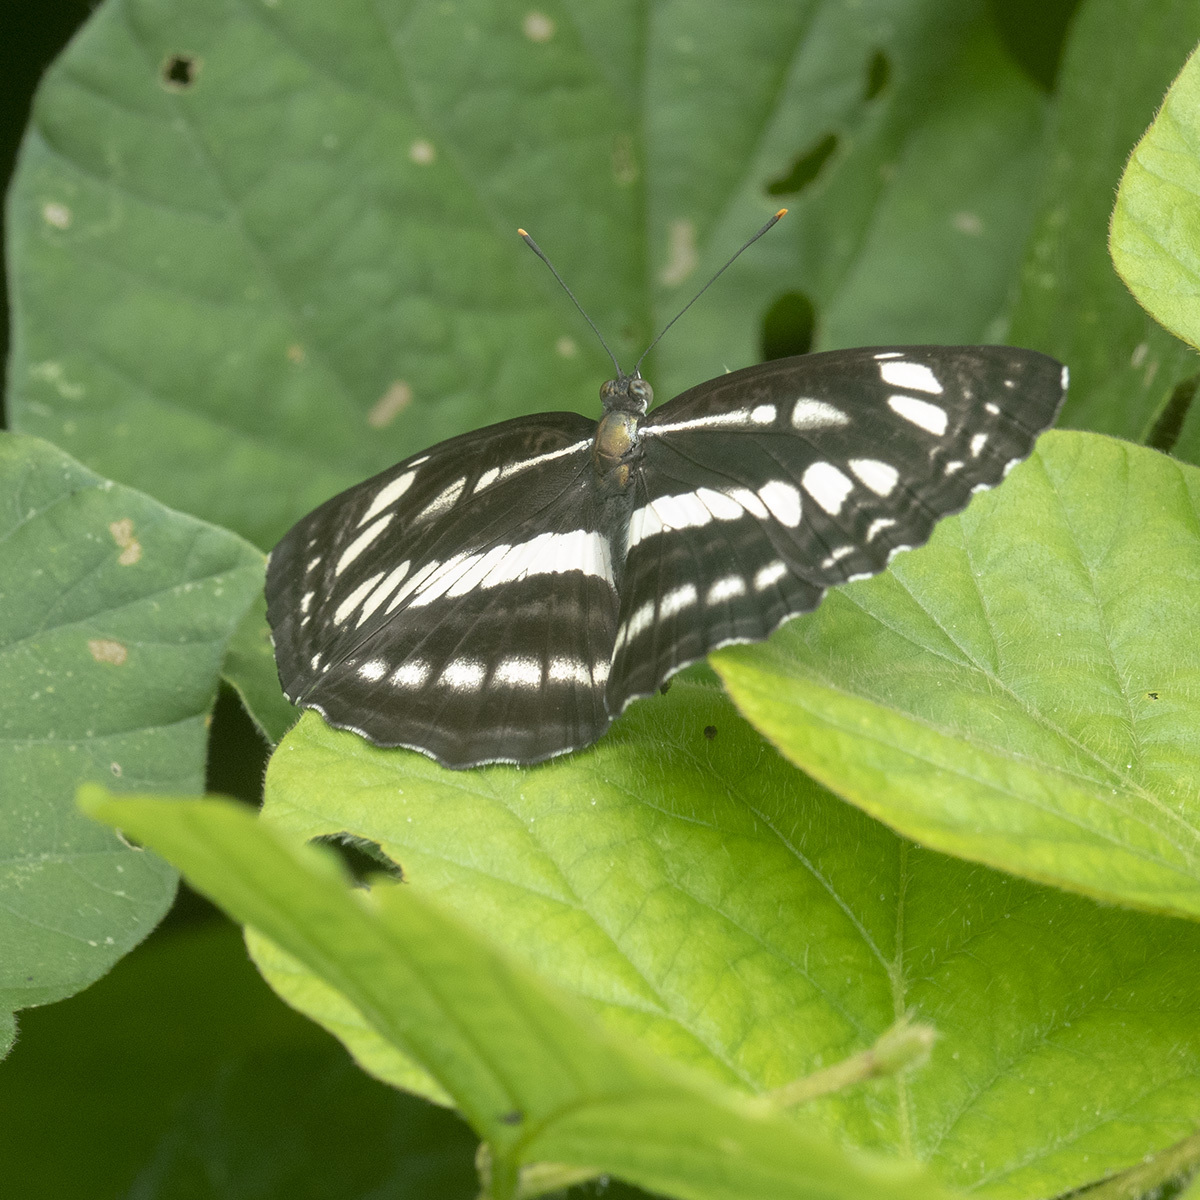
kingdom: Animalia
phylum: Arthropoda
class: Insecta
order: Lepidoptera
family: Nymphalidae
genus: Neptis
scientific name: Neptis clinia
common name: Southern sullied sailer
